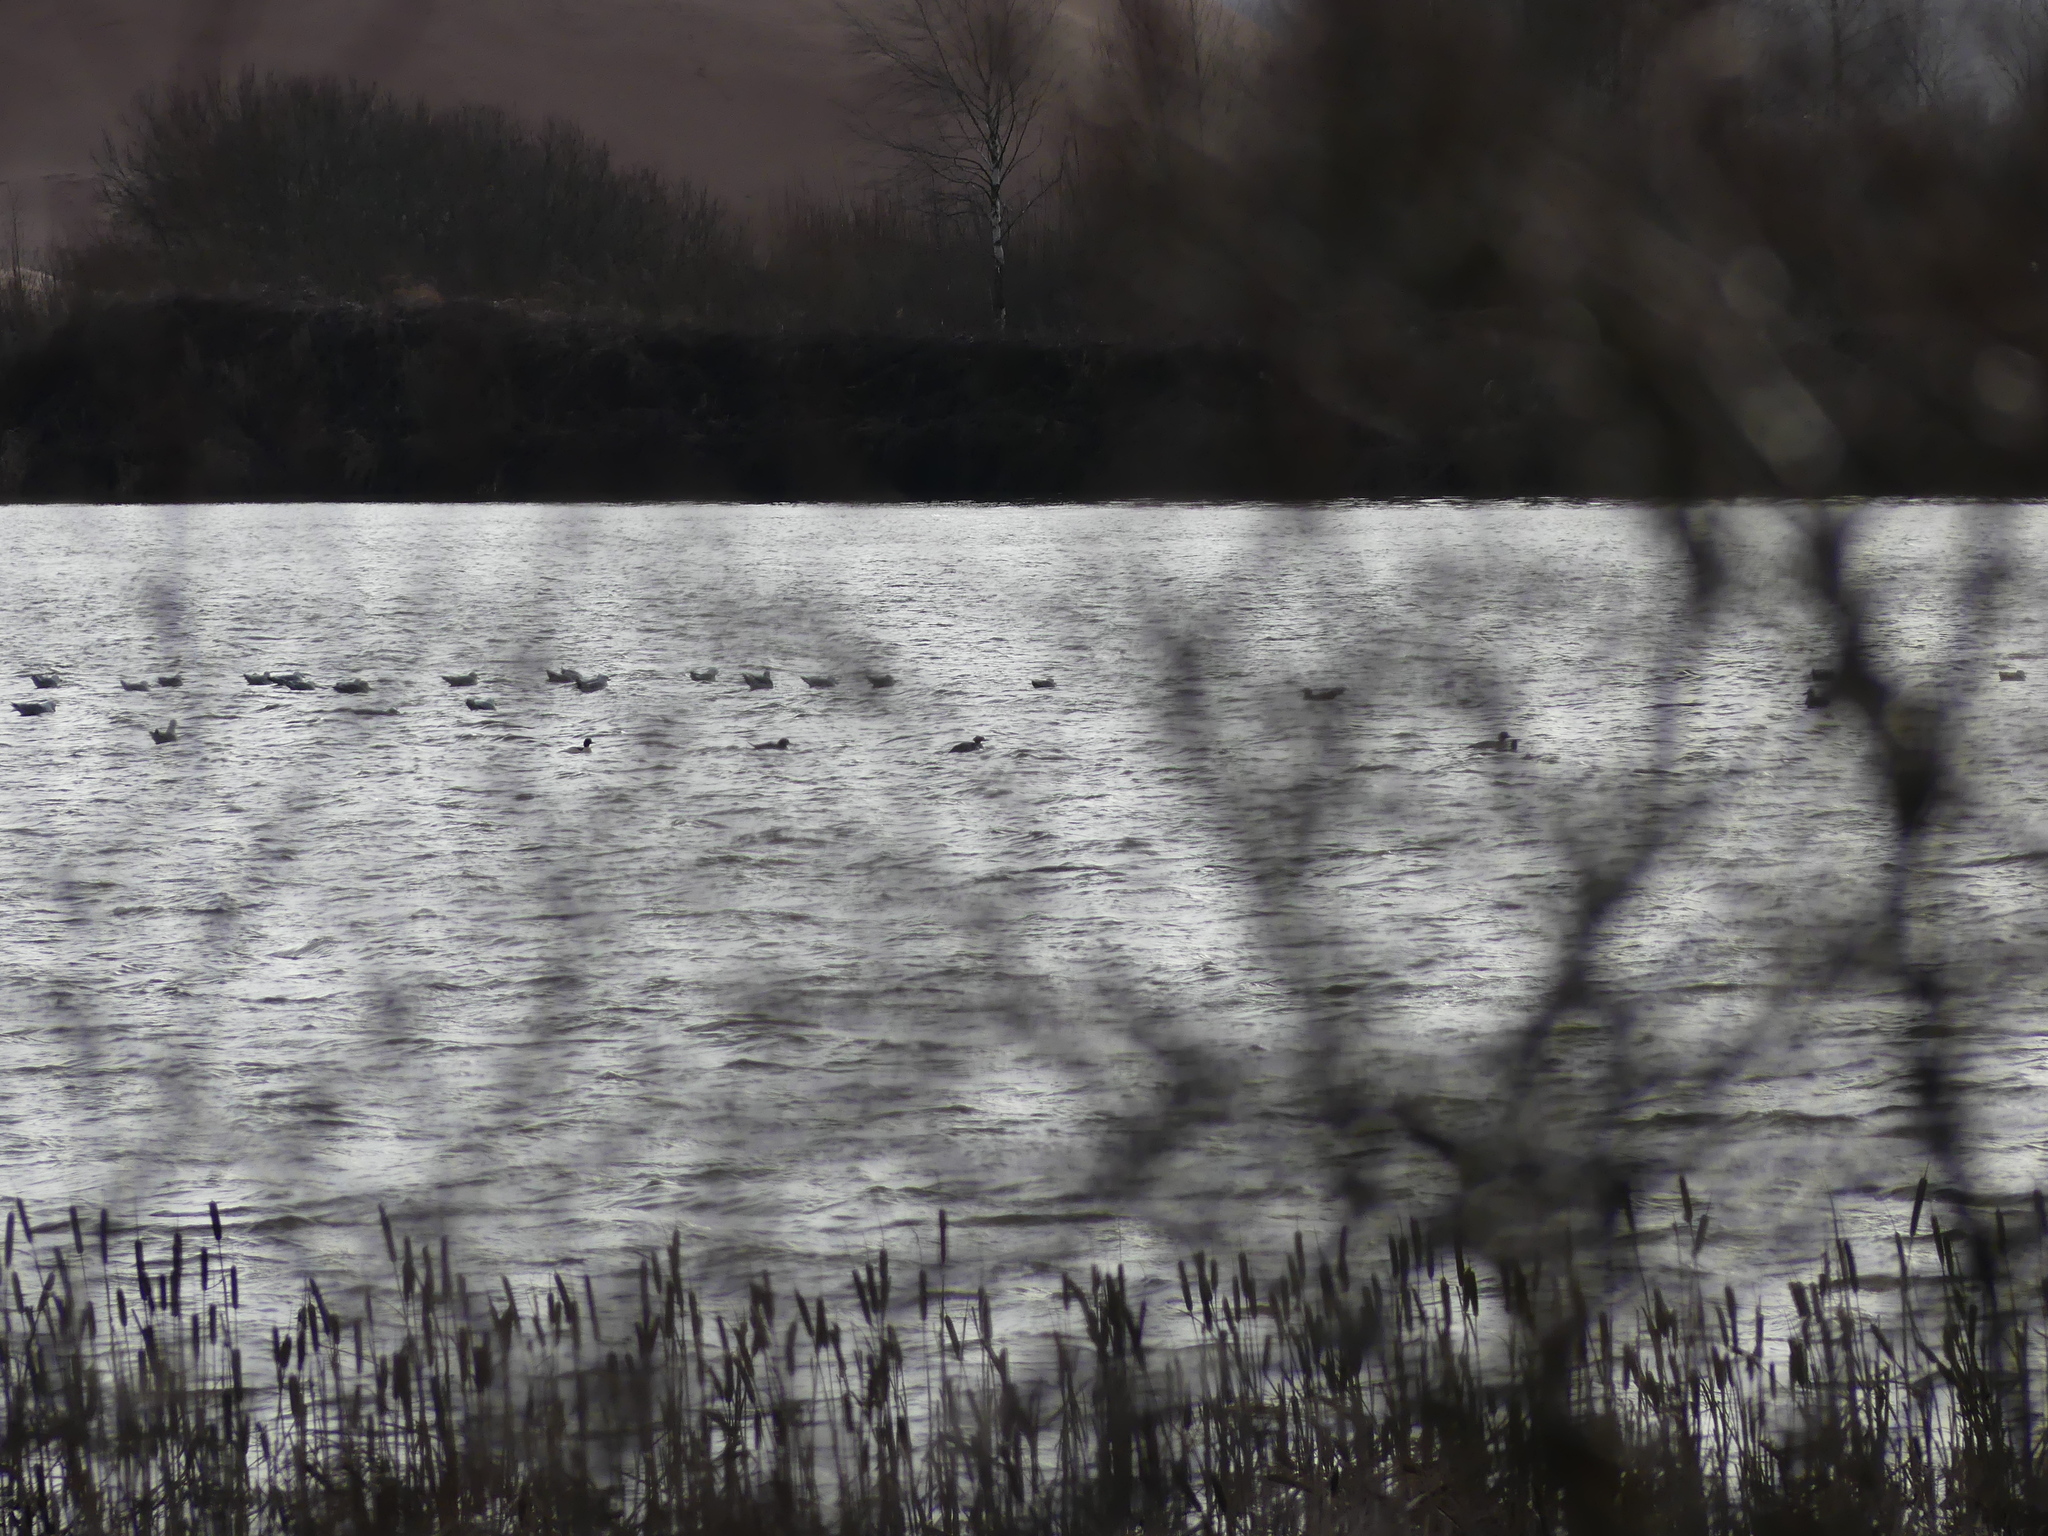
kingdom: Animalia
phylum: Chordata
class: Aves
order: Anseriformes
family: Anatidae
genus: Mergus
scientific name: Mergus merganser
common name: Common merganser
